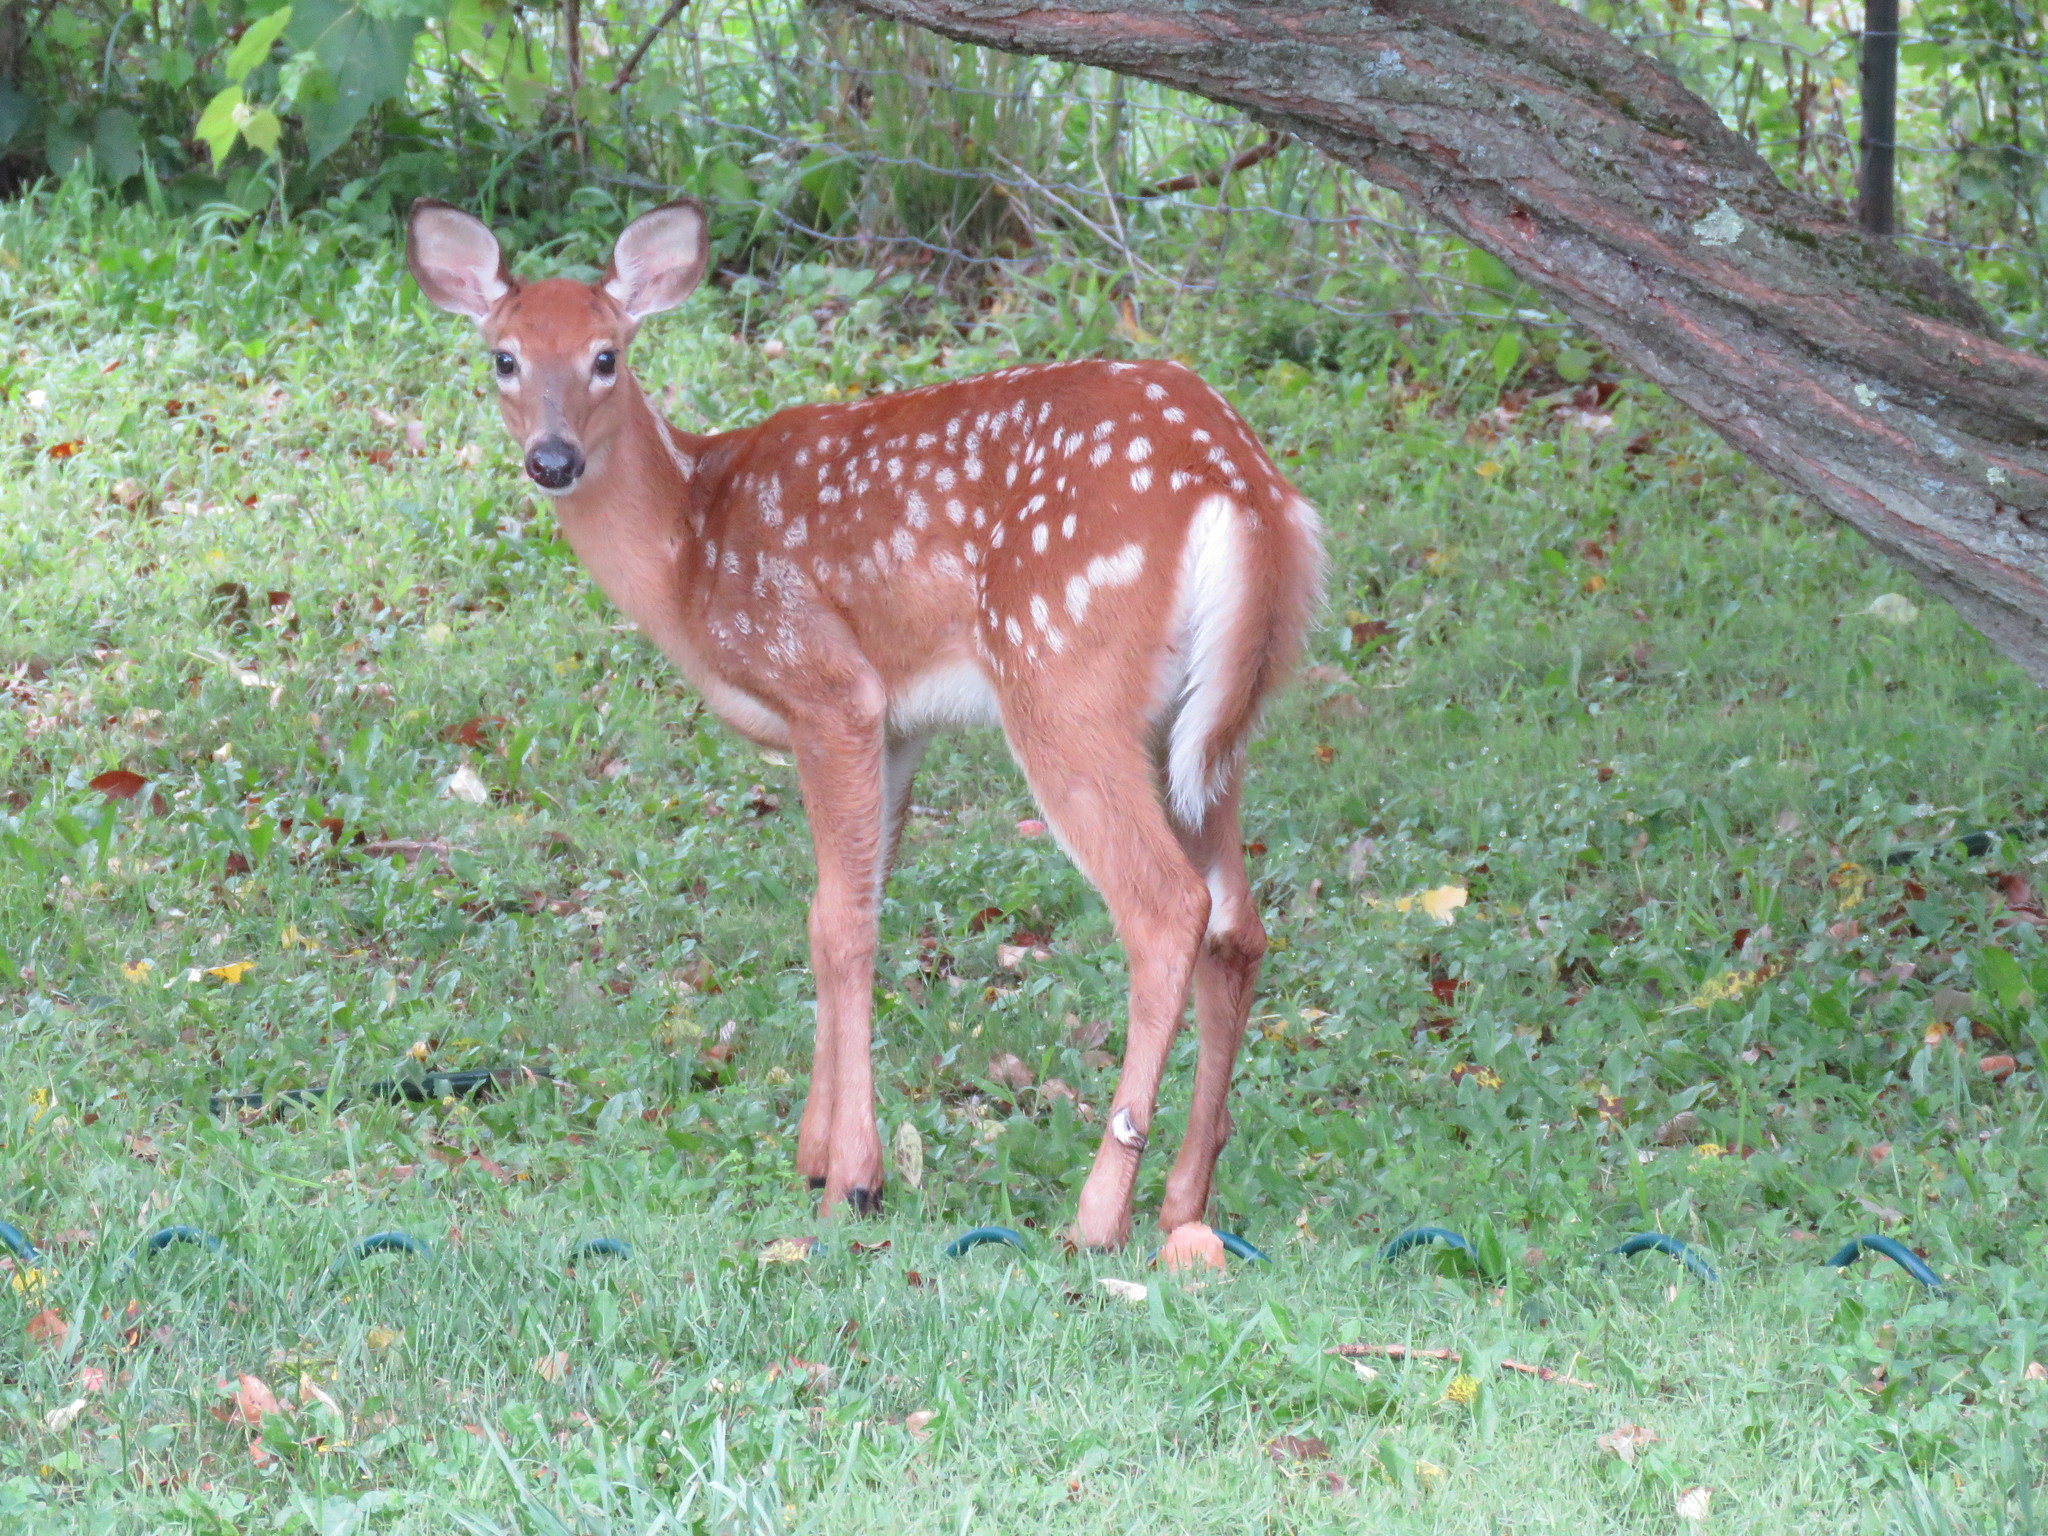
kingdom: Animalia
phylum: Chordata
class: Mammalia
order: Artiodactyla
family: Cervidae
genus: Odocoileus
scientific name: Odocoileus virginianus
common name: White-tailed deer
